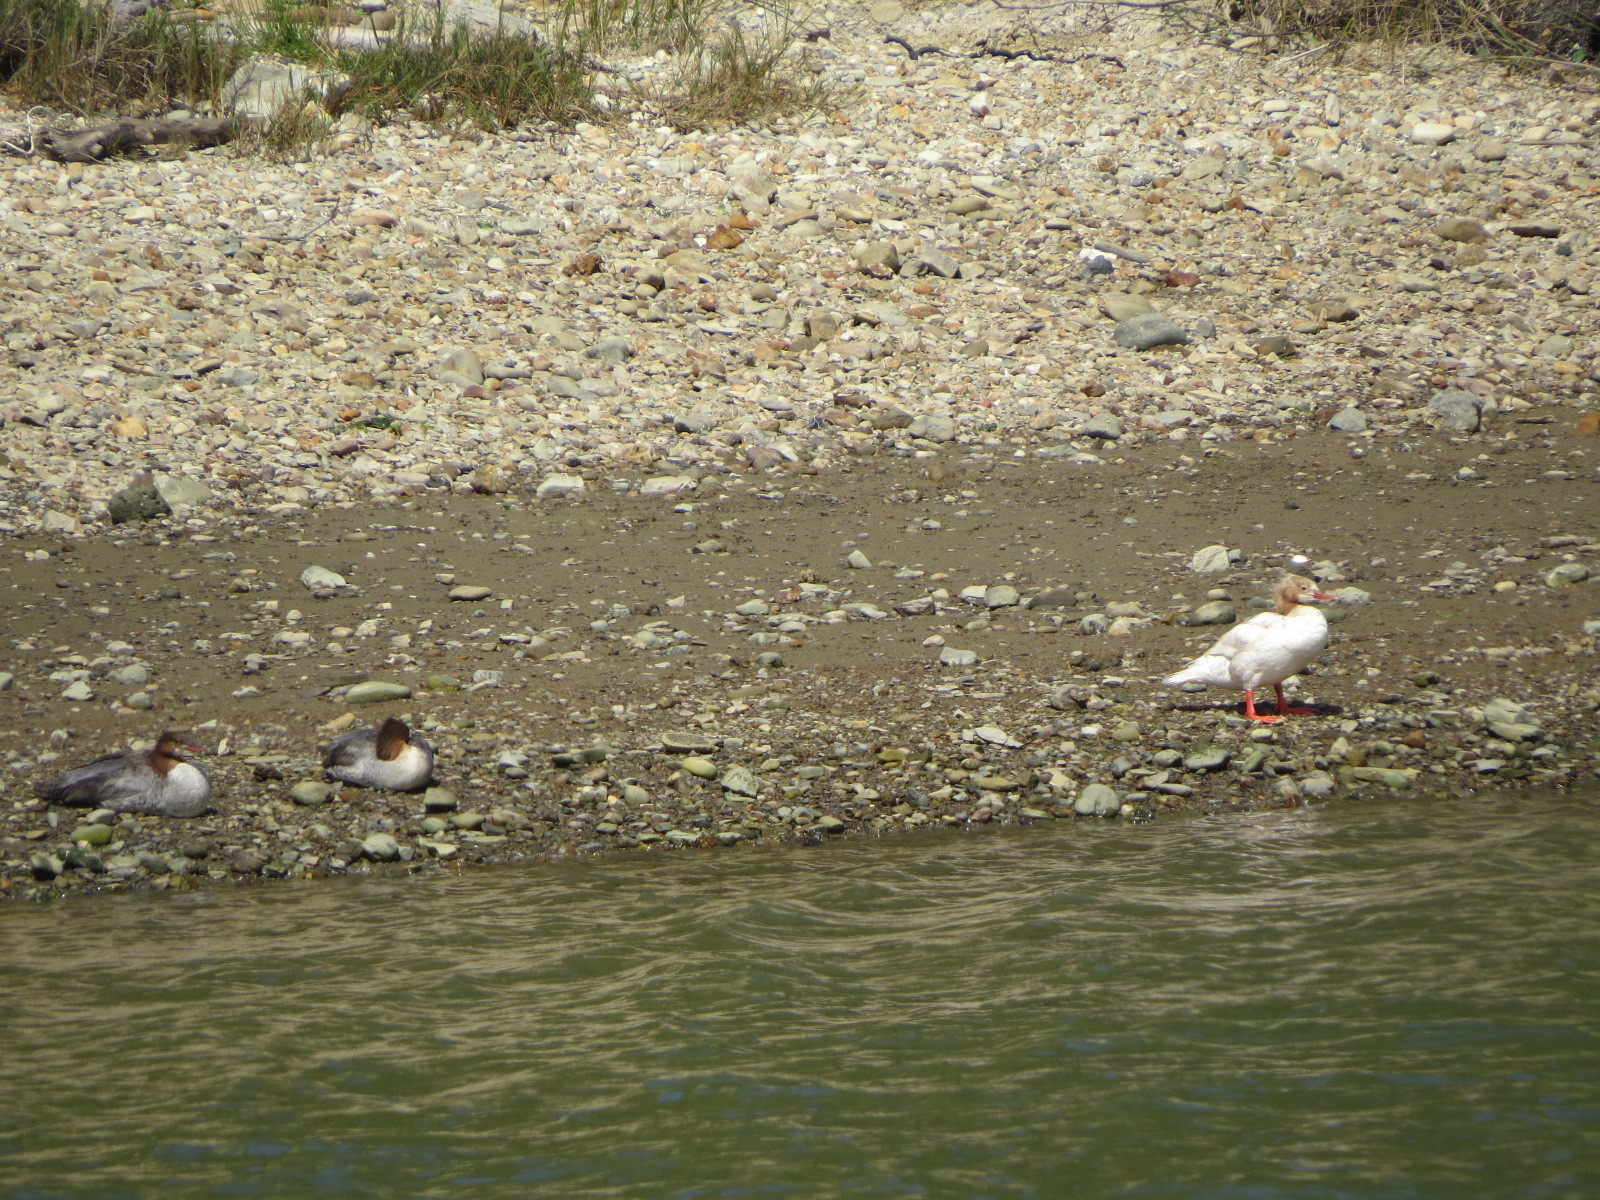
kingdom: Animalia
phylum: Chordata
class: Aves
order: Anseriformes
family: Anatidae
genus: Mergus
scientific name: Mergus merganser
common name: Common merganser
